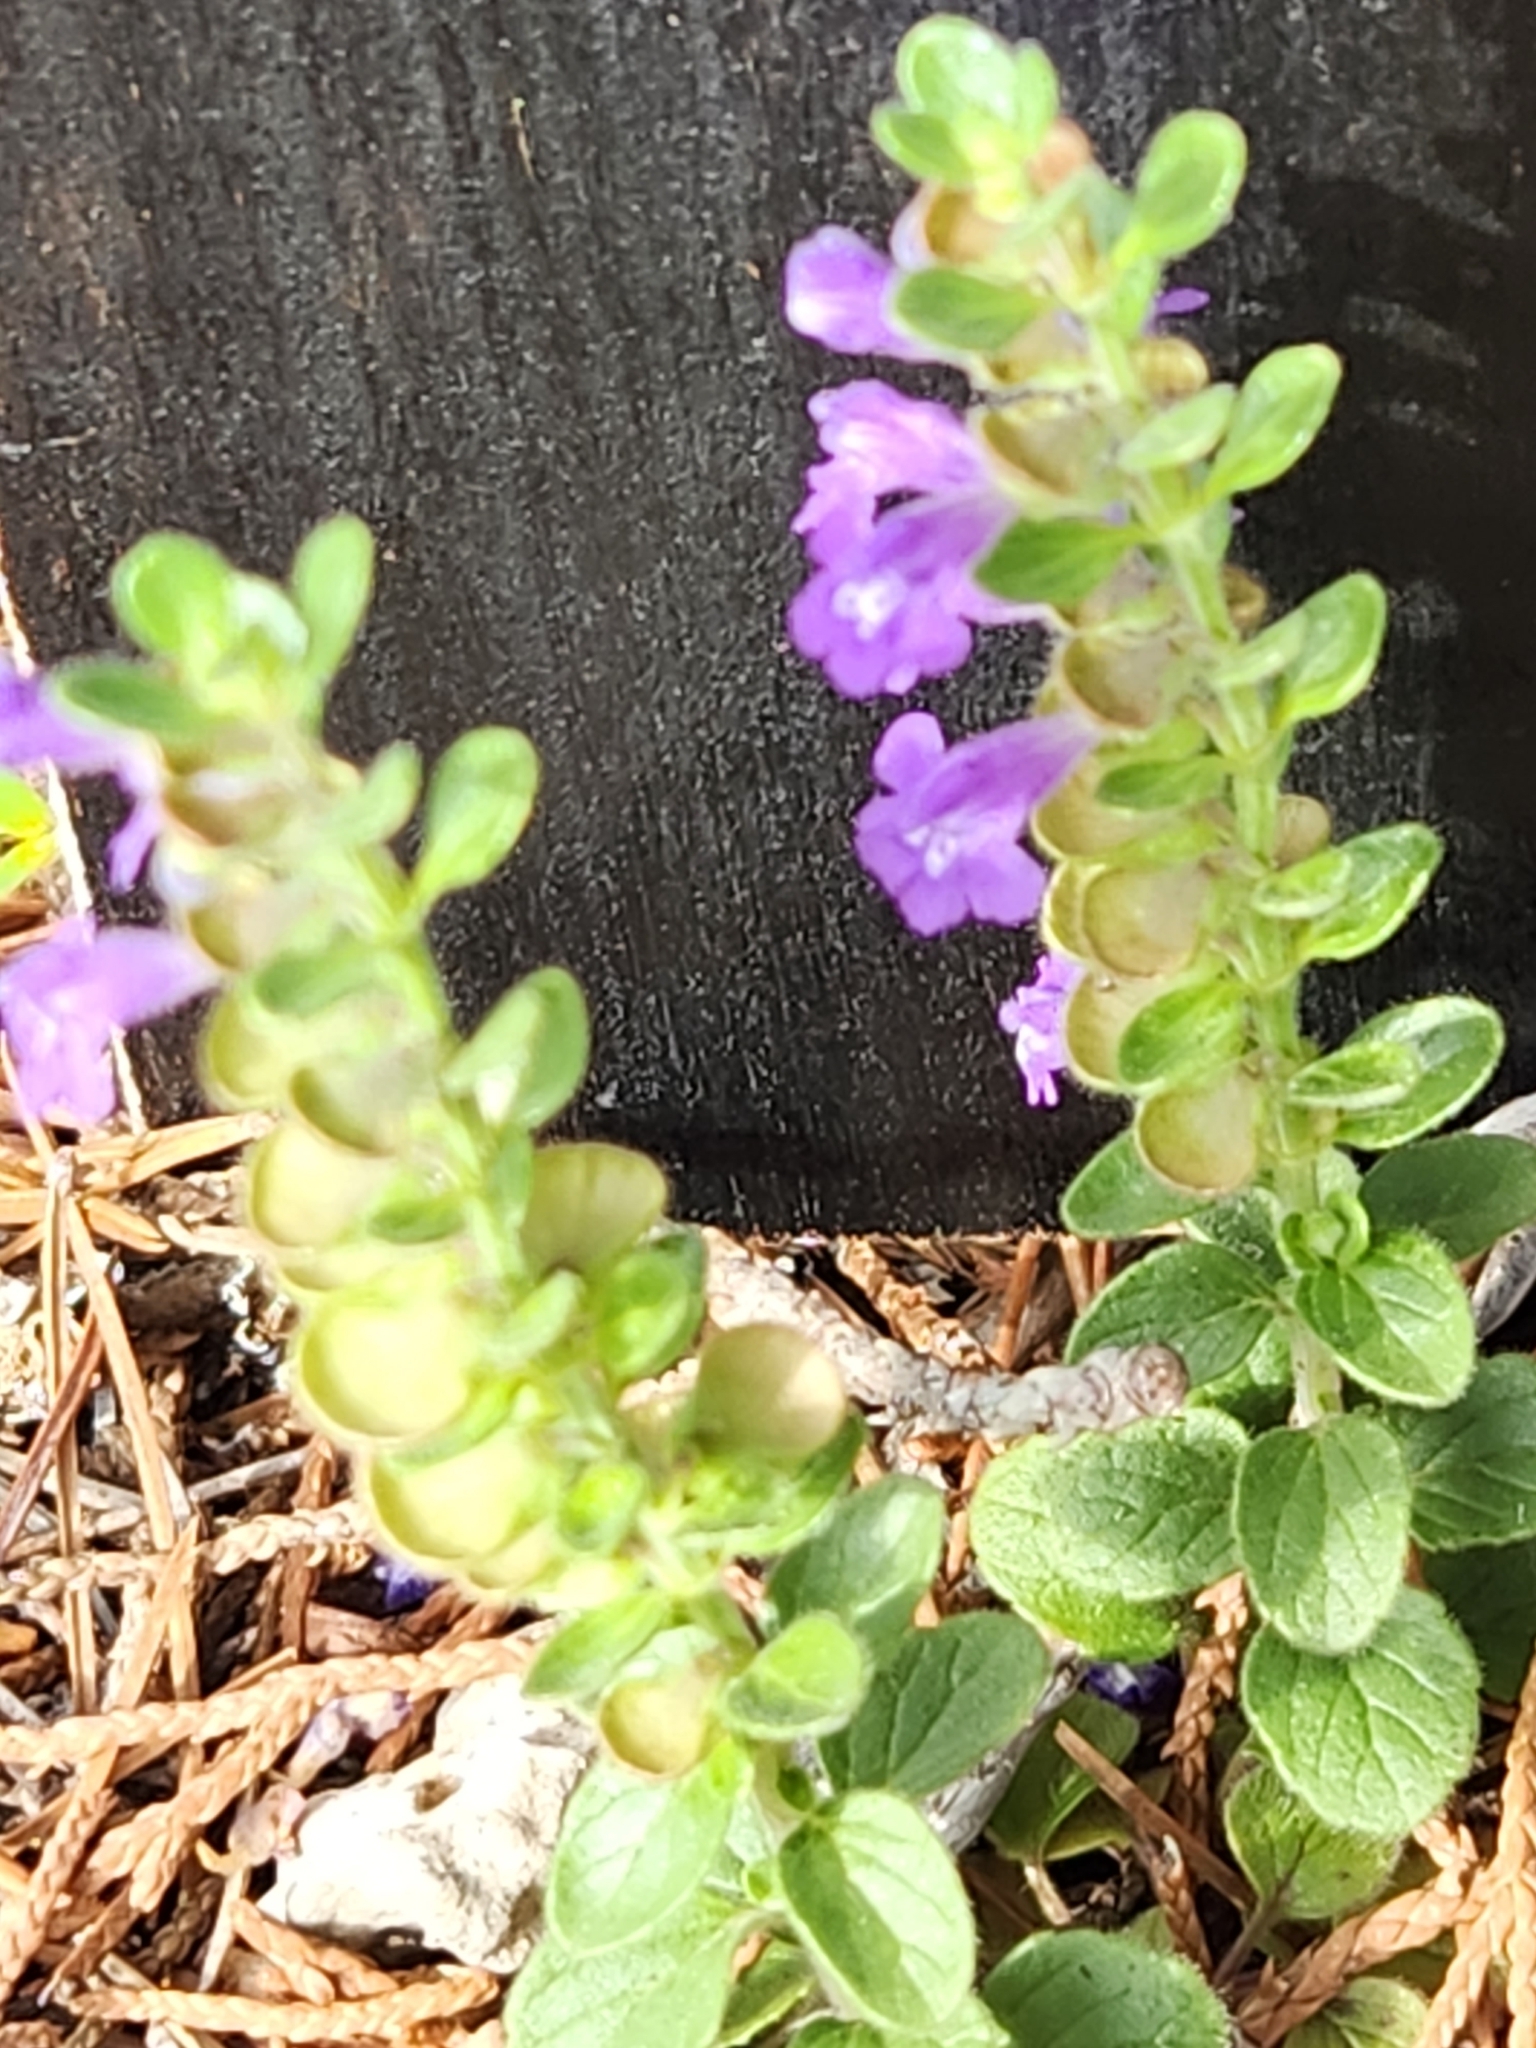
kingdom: Plantae
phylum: Tracheophyta
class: Magnoliopsida
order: Lamiales
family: Lamiaceae
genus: Scutellaria
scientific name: Scutellaria drummondii
